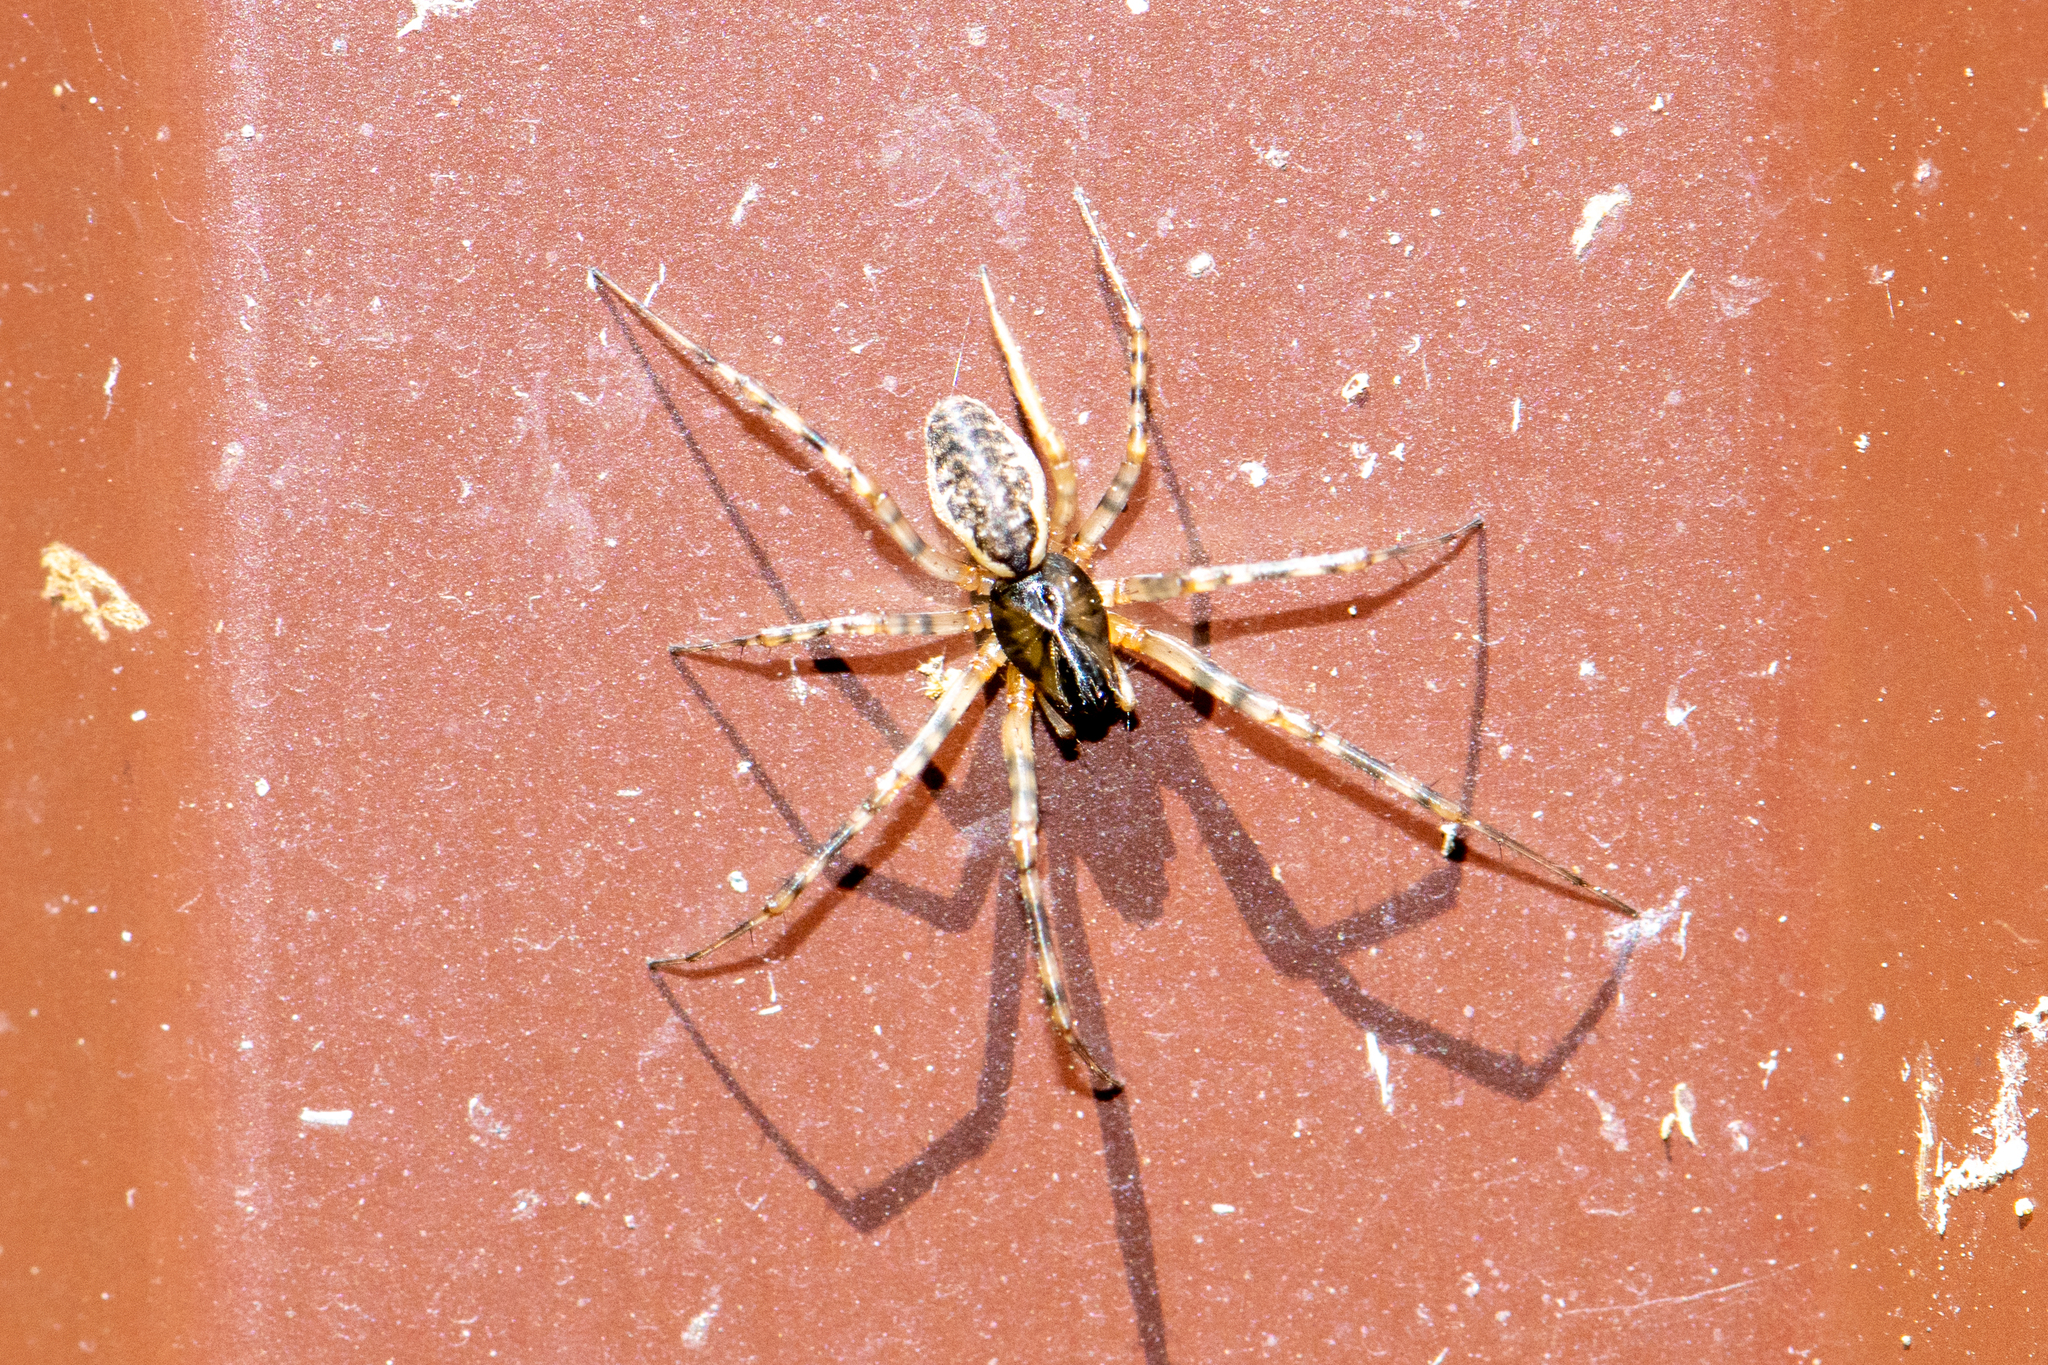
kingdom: Animalia
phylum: Arthropoda
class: Arachnida
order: Araneae
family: Linyphiidae
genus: Neriene
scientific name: Neriene montana
